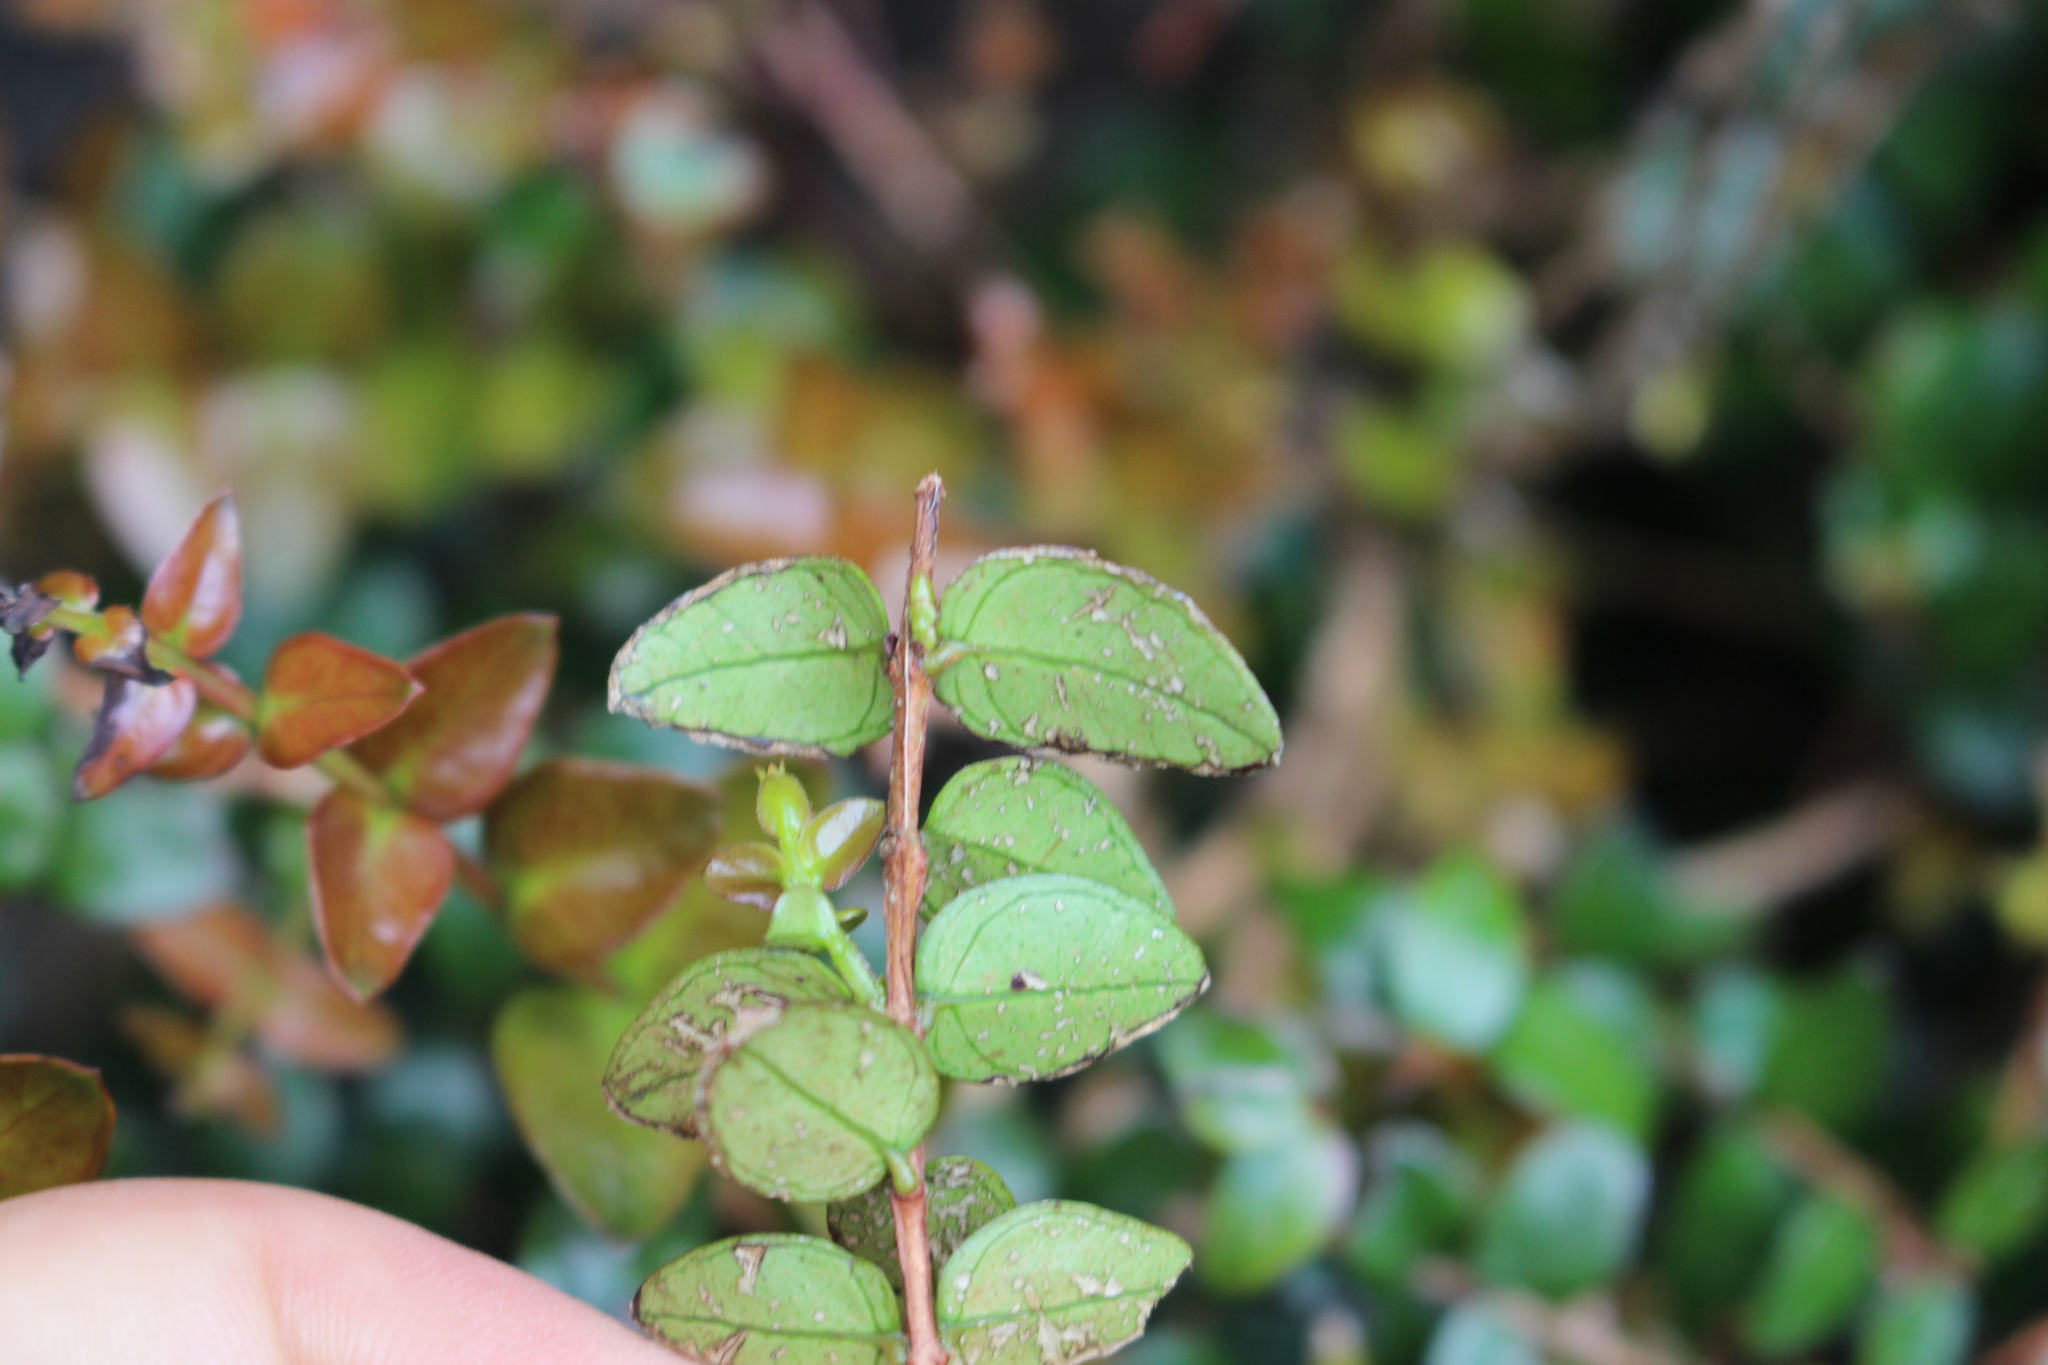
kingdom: Plantae
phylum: Tracheophyta
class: Magnoliopsida
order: Myrtales
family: Myrtaceae
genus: Metrosideros
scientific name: Metrosideros diffusa
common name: Small ratavine
